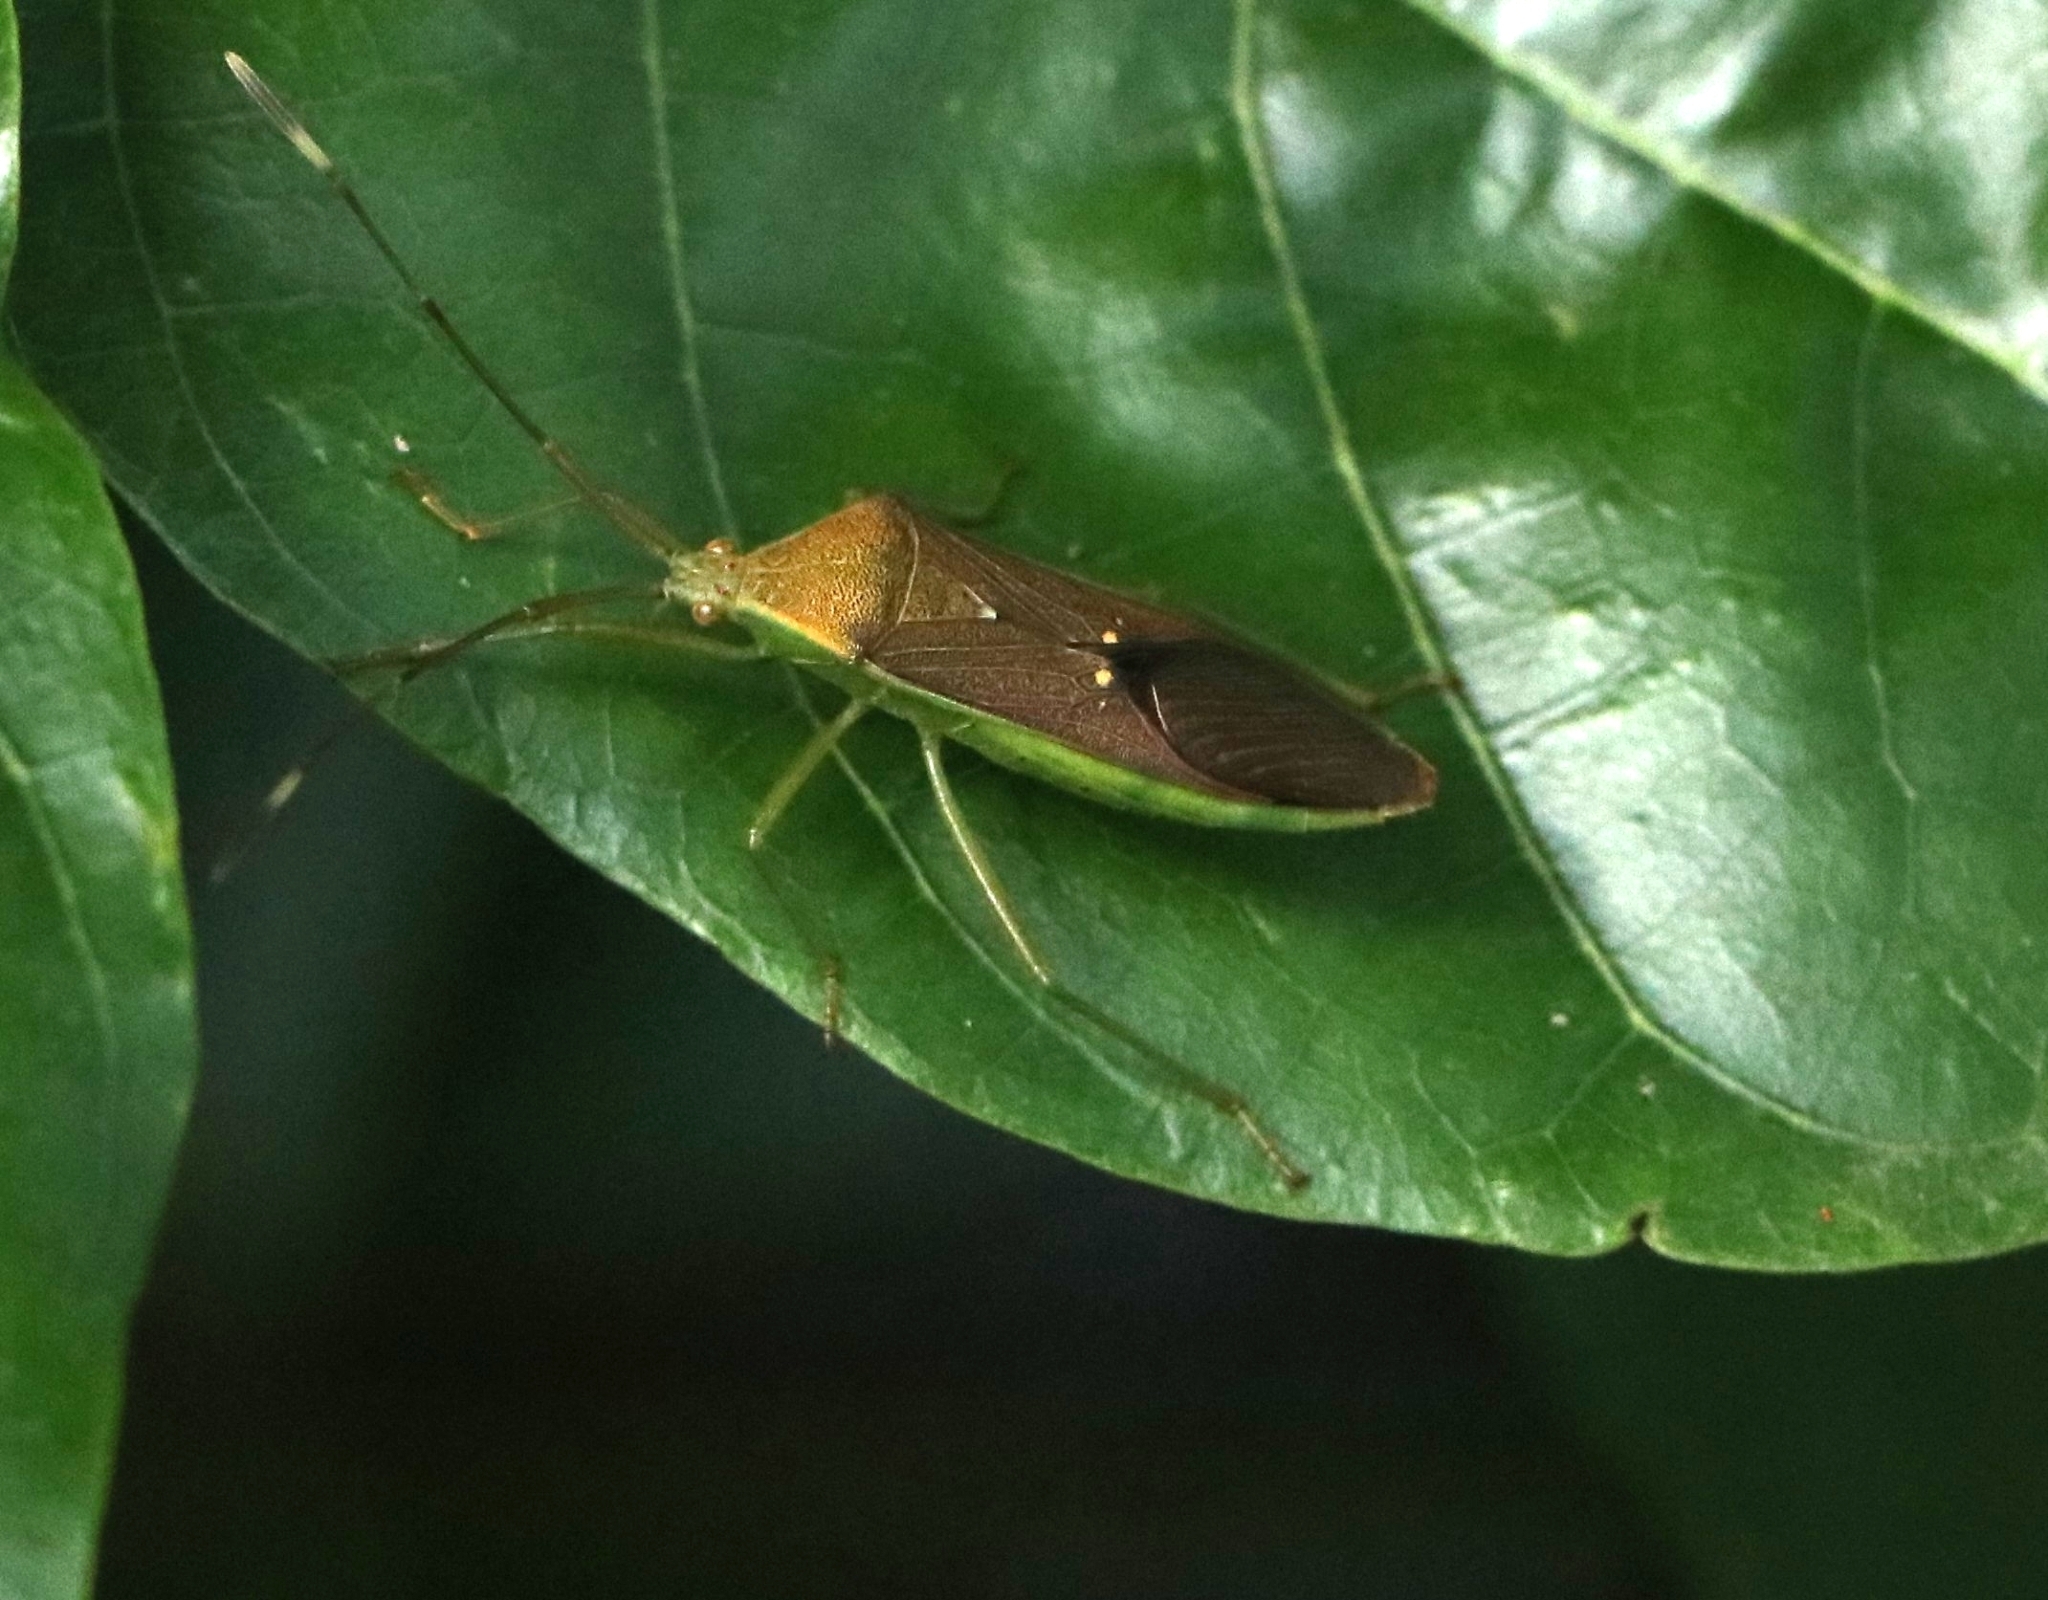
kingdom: Animalia
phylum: Arthropoda
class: Insecta
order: Hemiptera
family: Coreidae
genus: Homoeocerus
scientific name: Homoeocerus relatus
